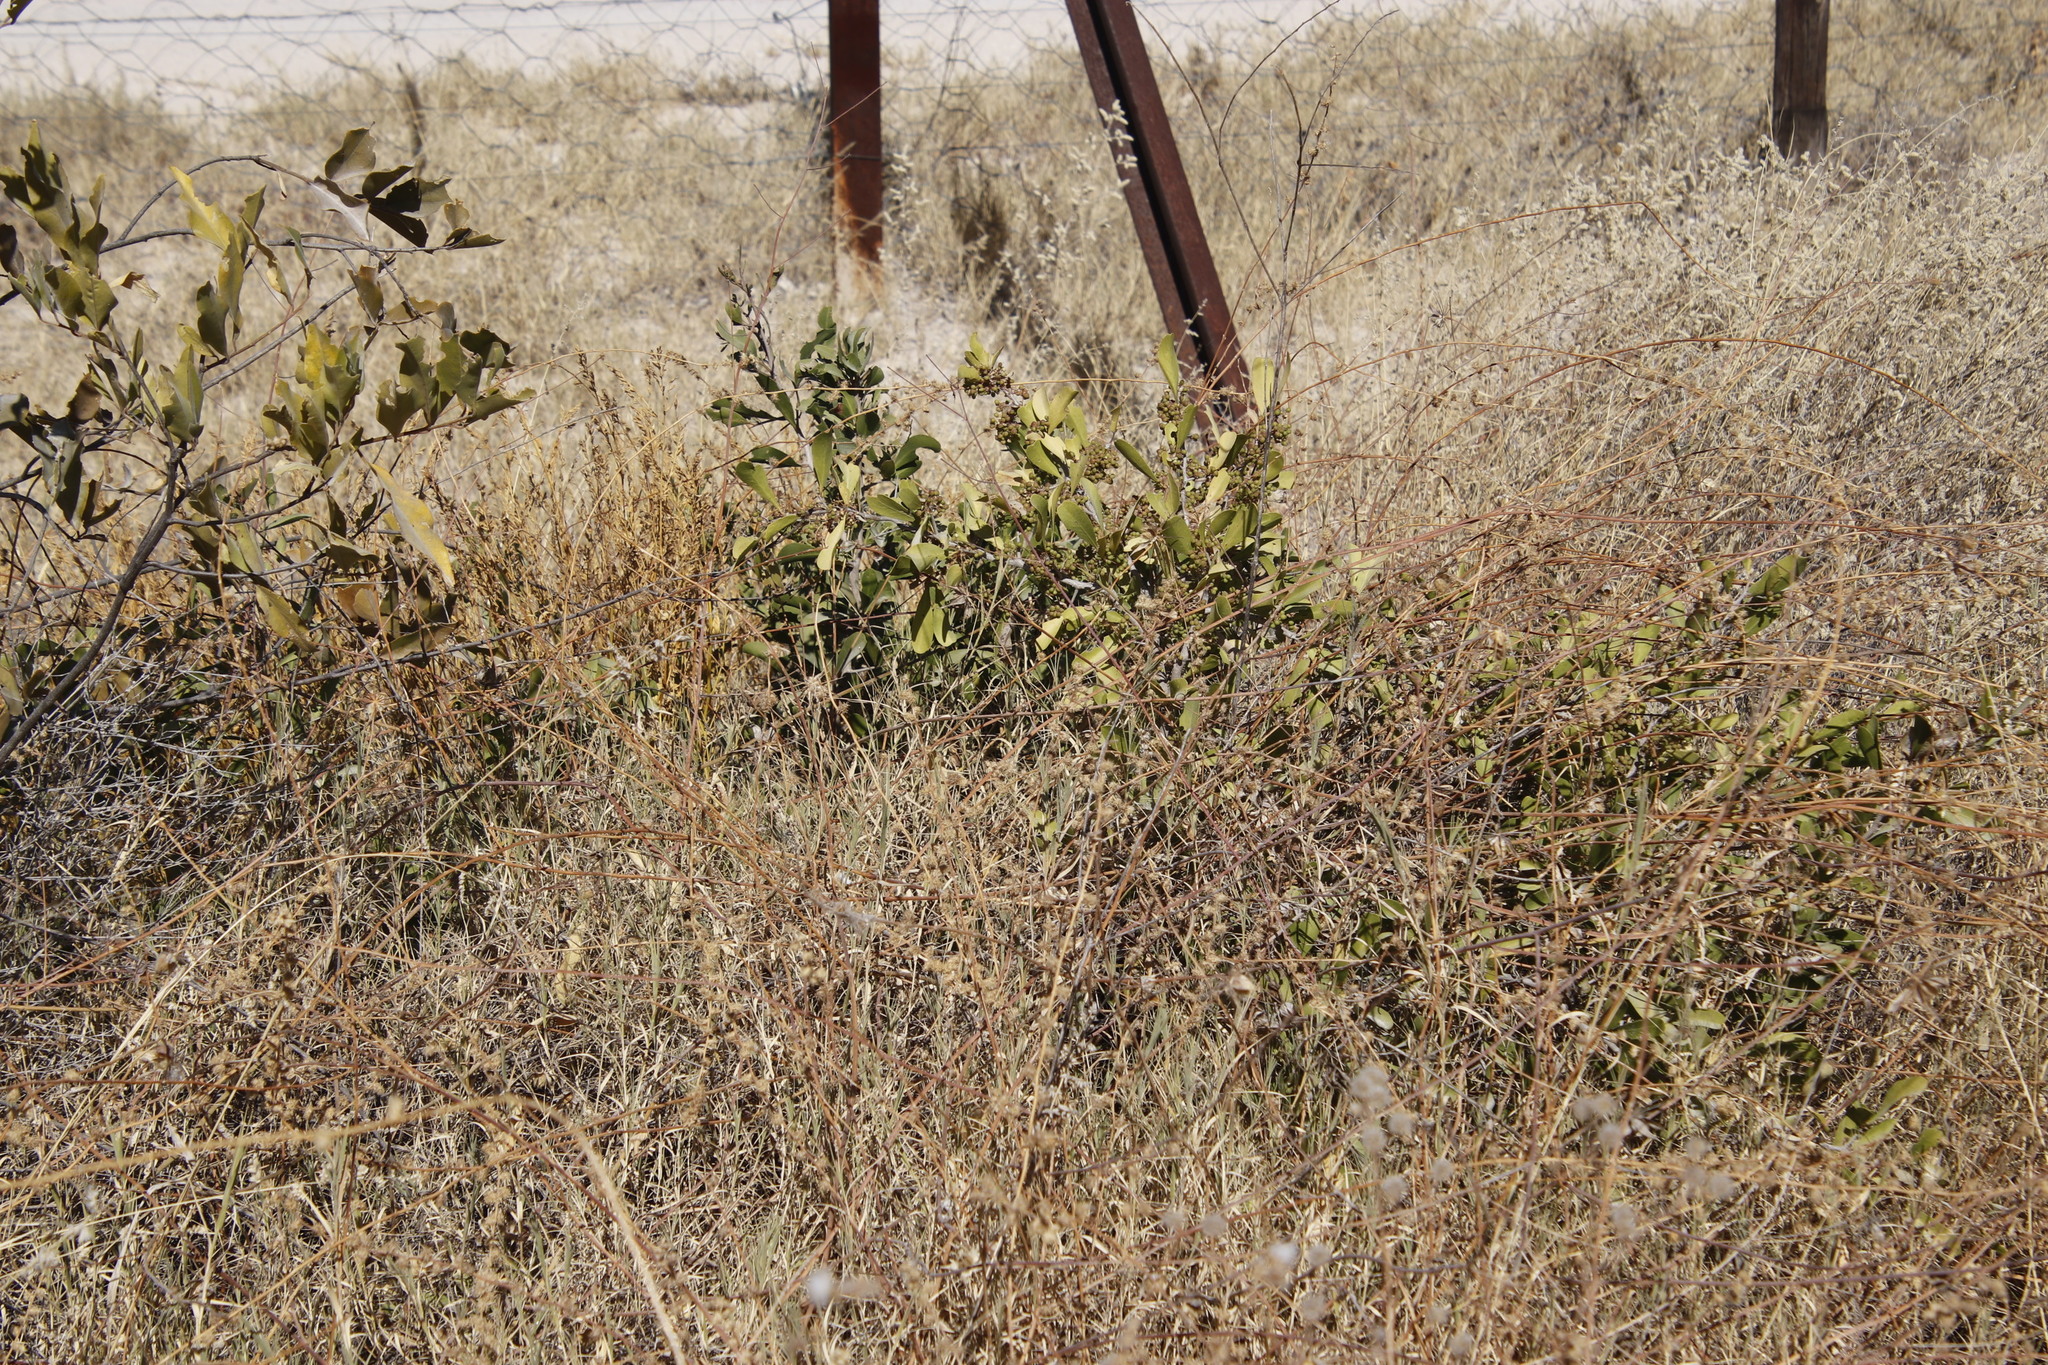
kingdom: Plantae
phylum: Tracheophyta
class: Magnoliopsida
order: Celastrales
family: Celastraceae
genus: Gymnosporia
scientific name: Gymnosporia senegalensis
